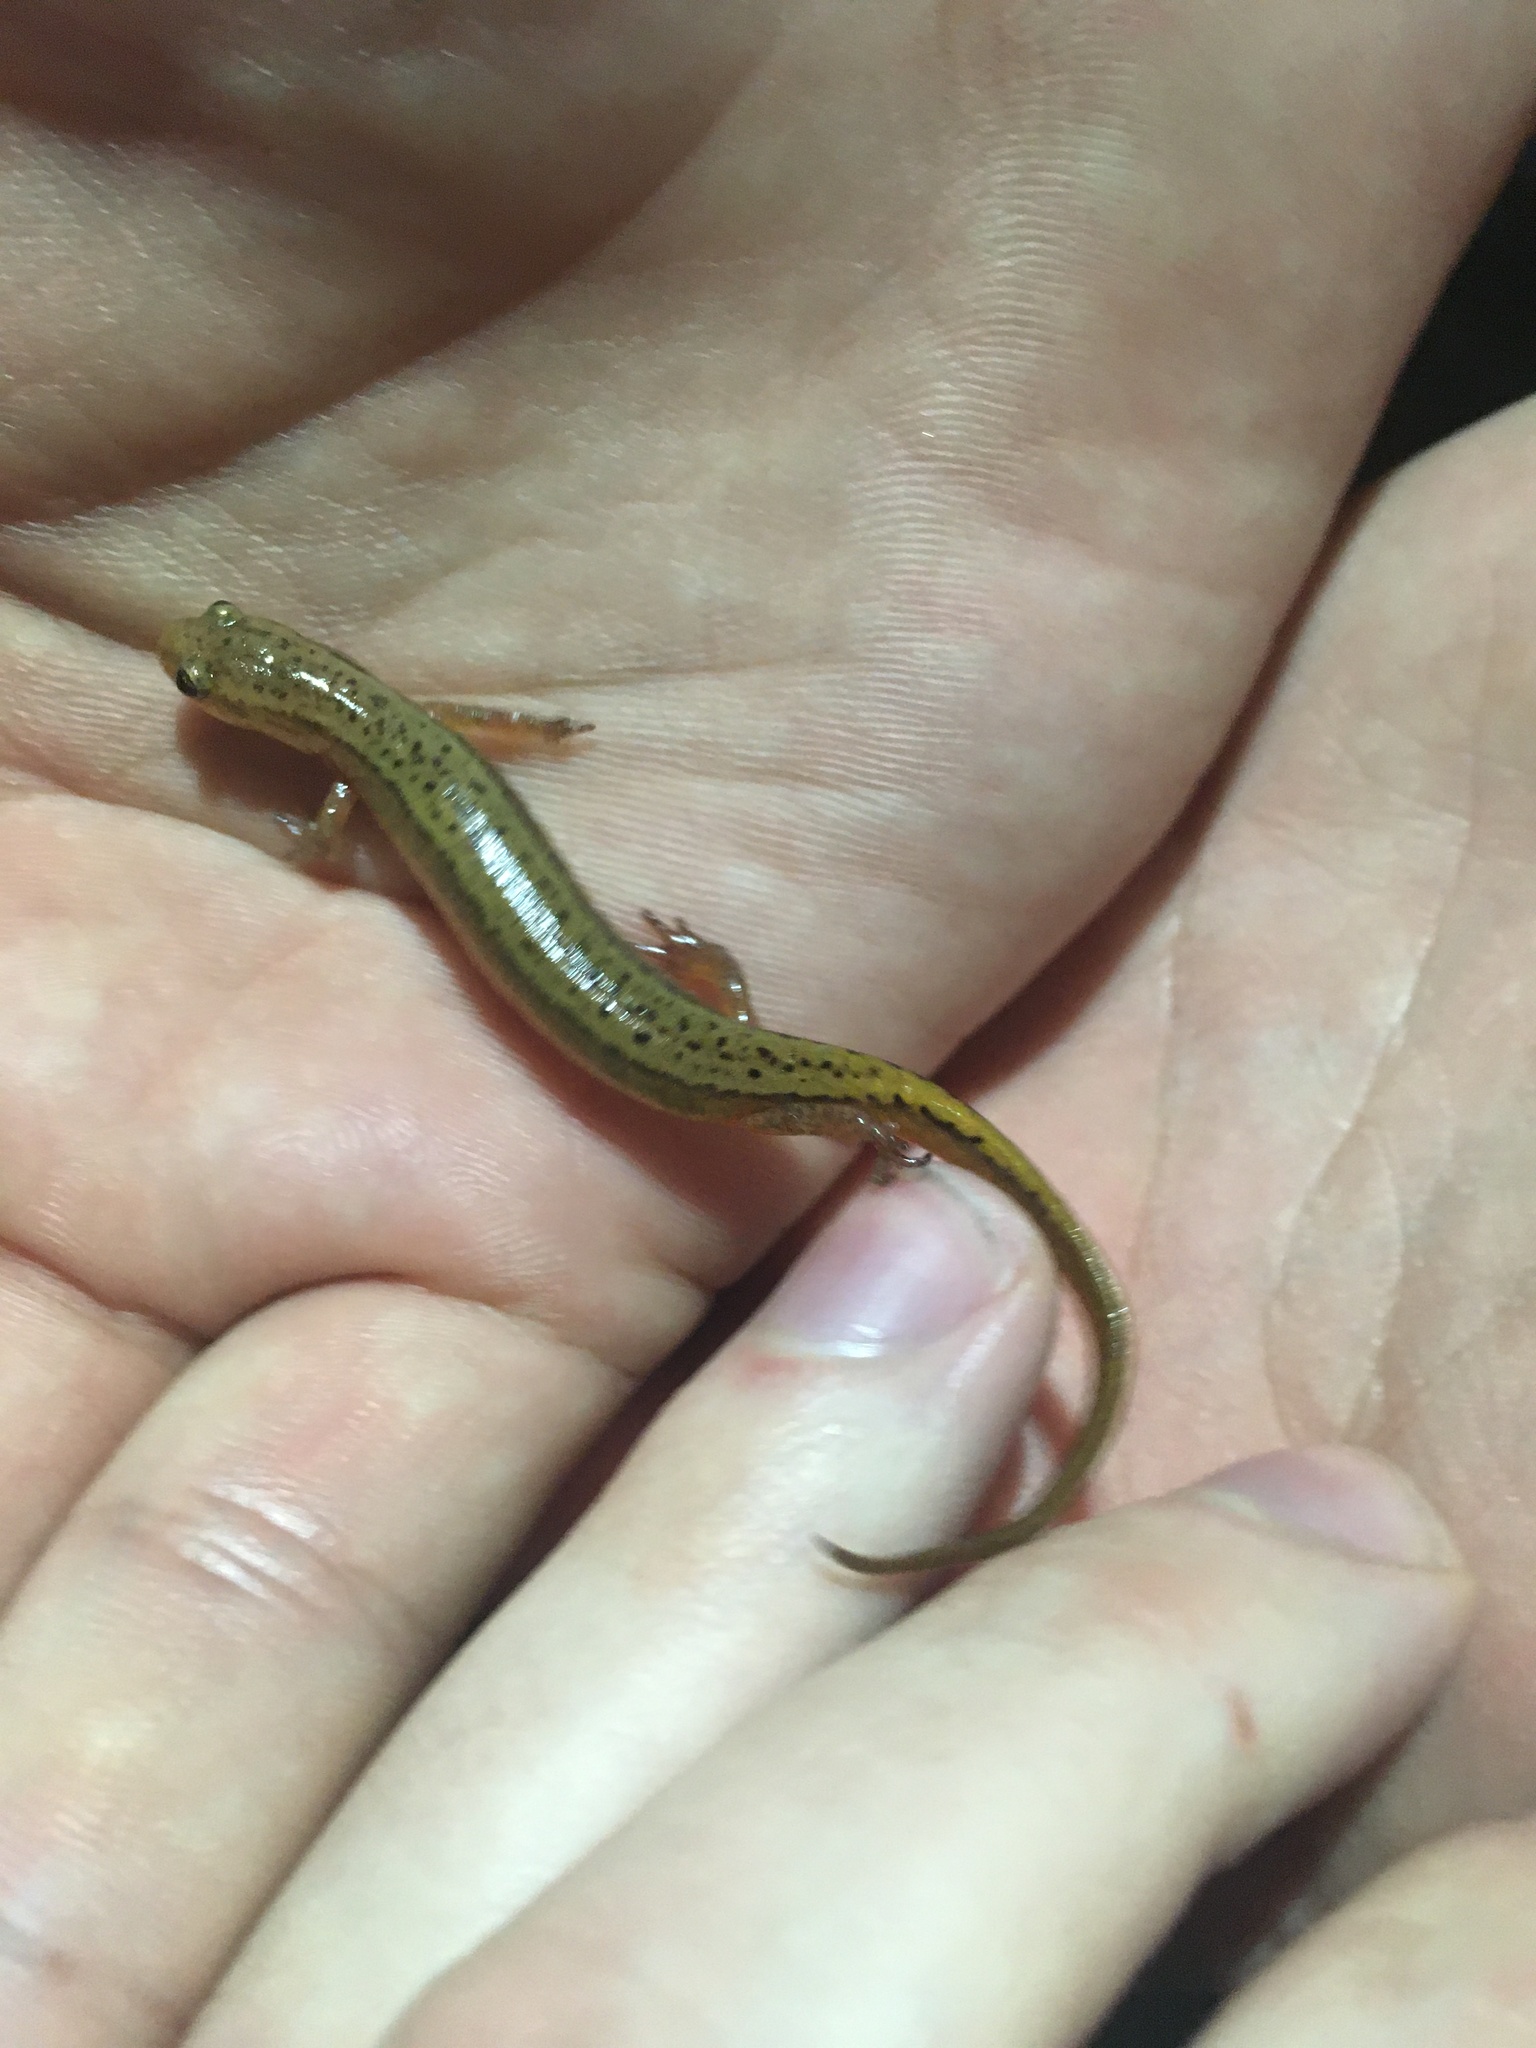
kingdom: Animalia
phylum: Chordata
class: Amphibia
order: Caudata
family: Plethodontidae
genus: Eurycea
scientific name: Eurycea wilderae
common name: Blue ridge two-lined salamander
